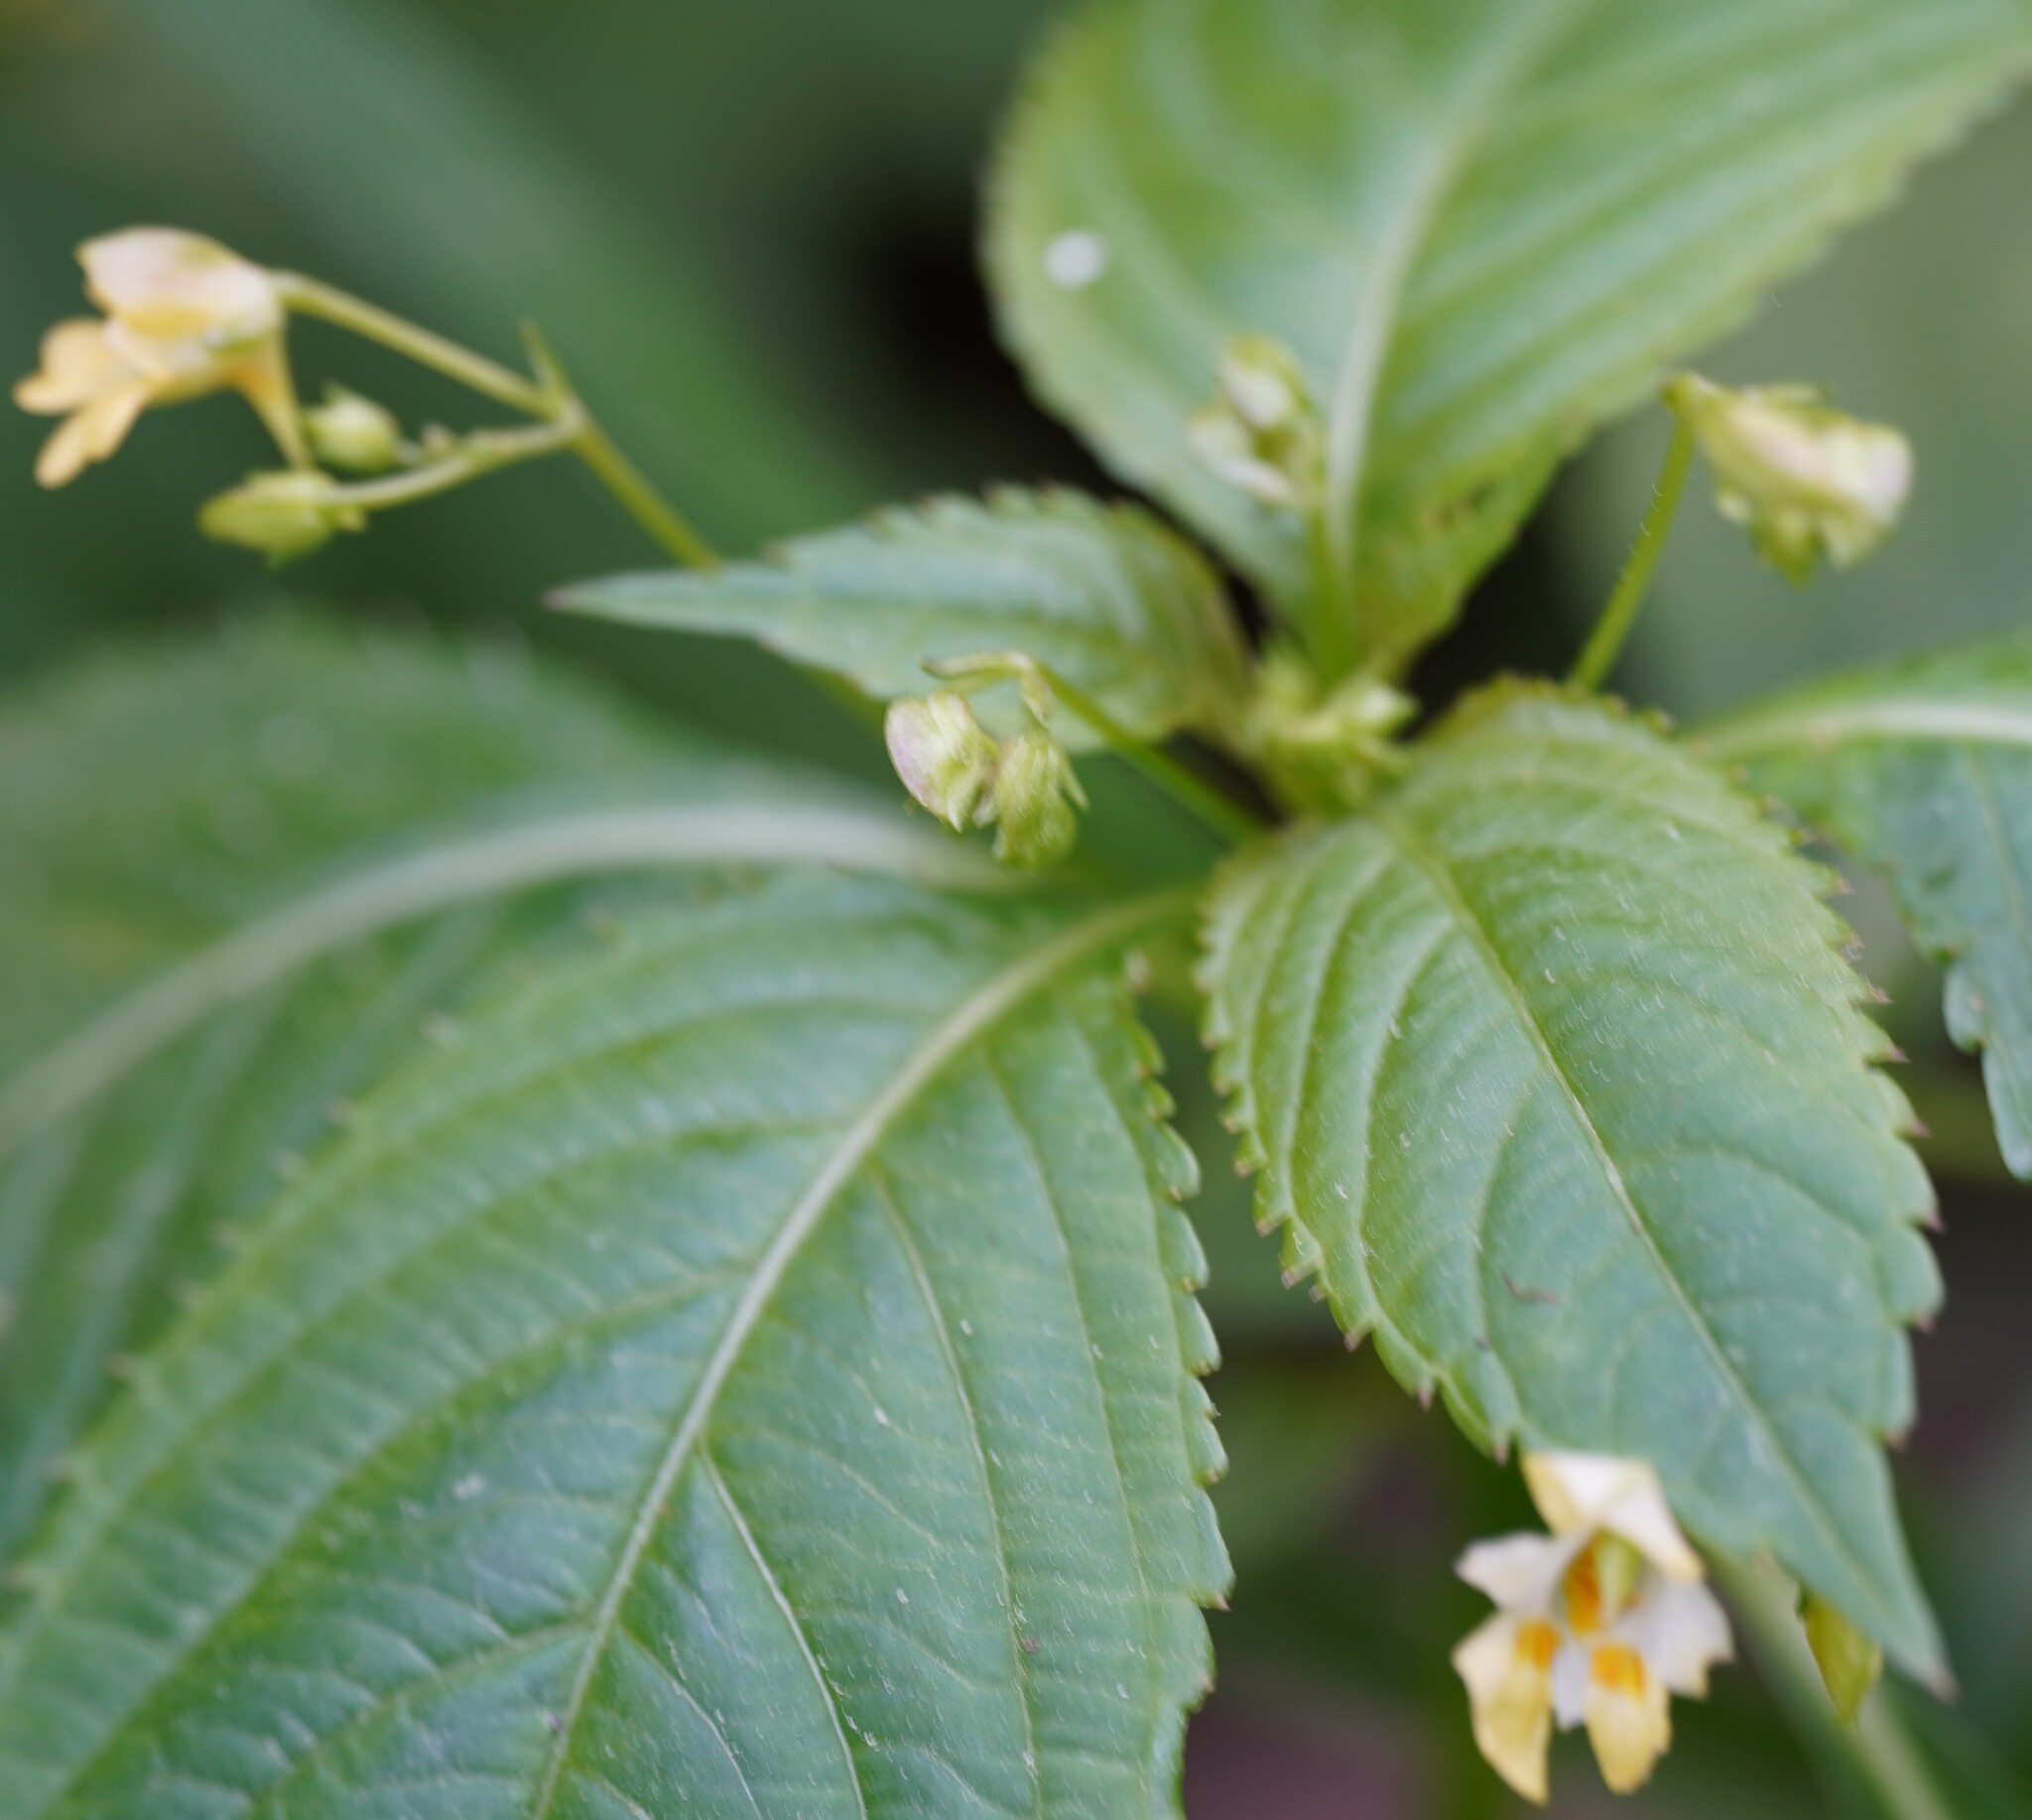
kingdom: Plantae
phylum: Tracheophyta
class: Magnoliopsida
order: Ericales
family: Balsaminaceae
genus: Impatiens
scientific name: Impatiens parviflora
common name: Small balsam
